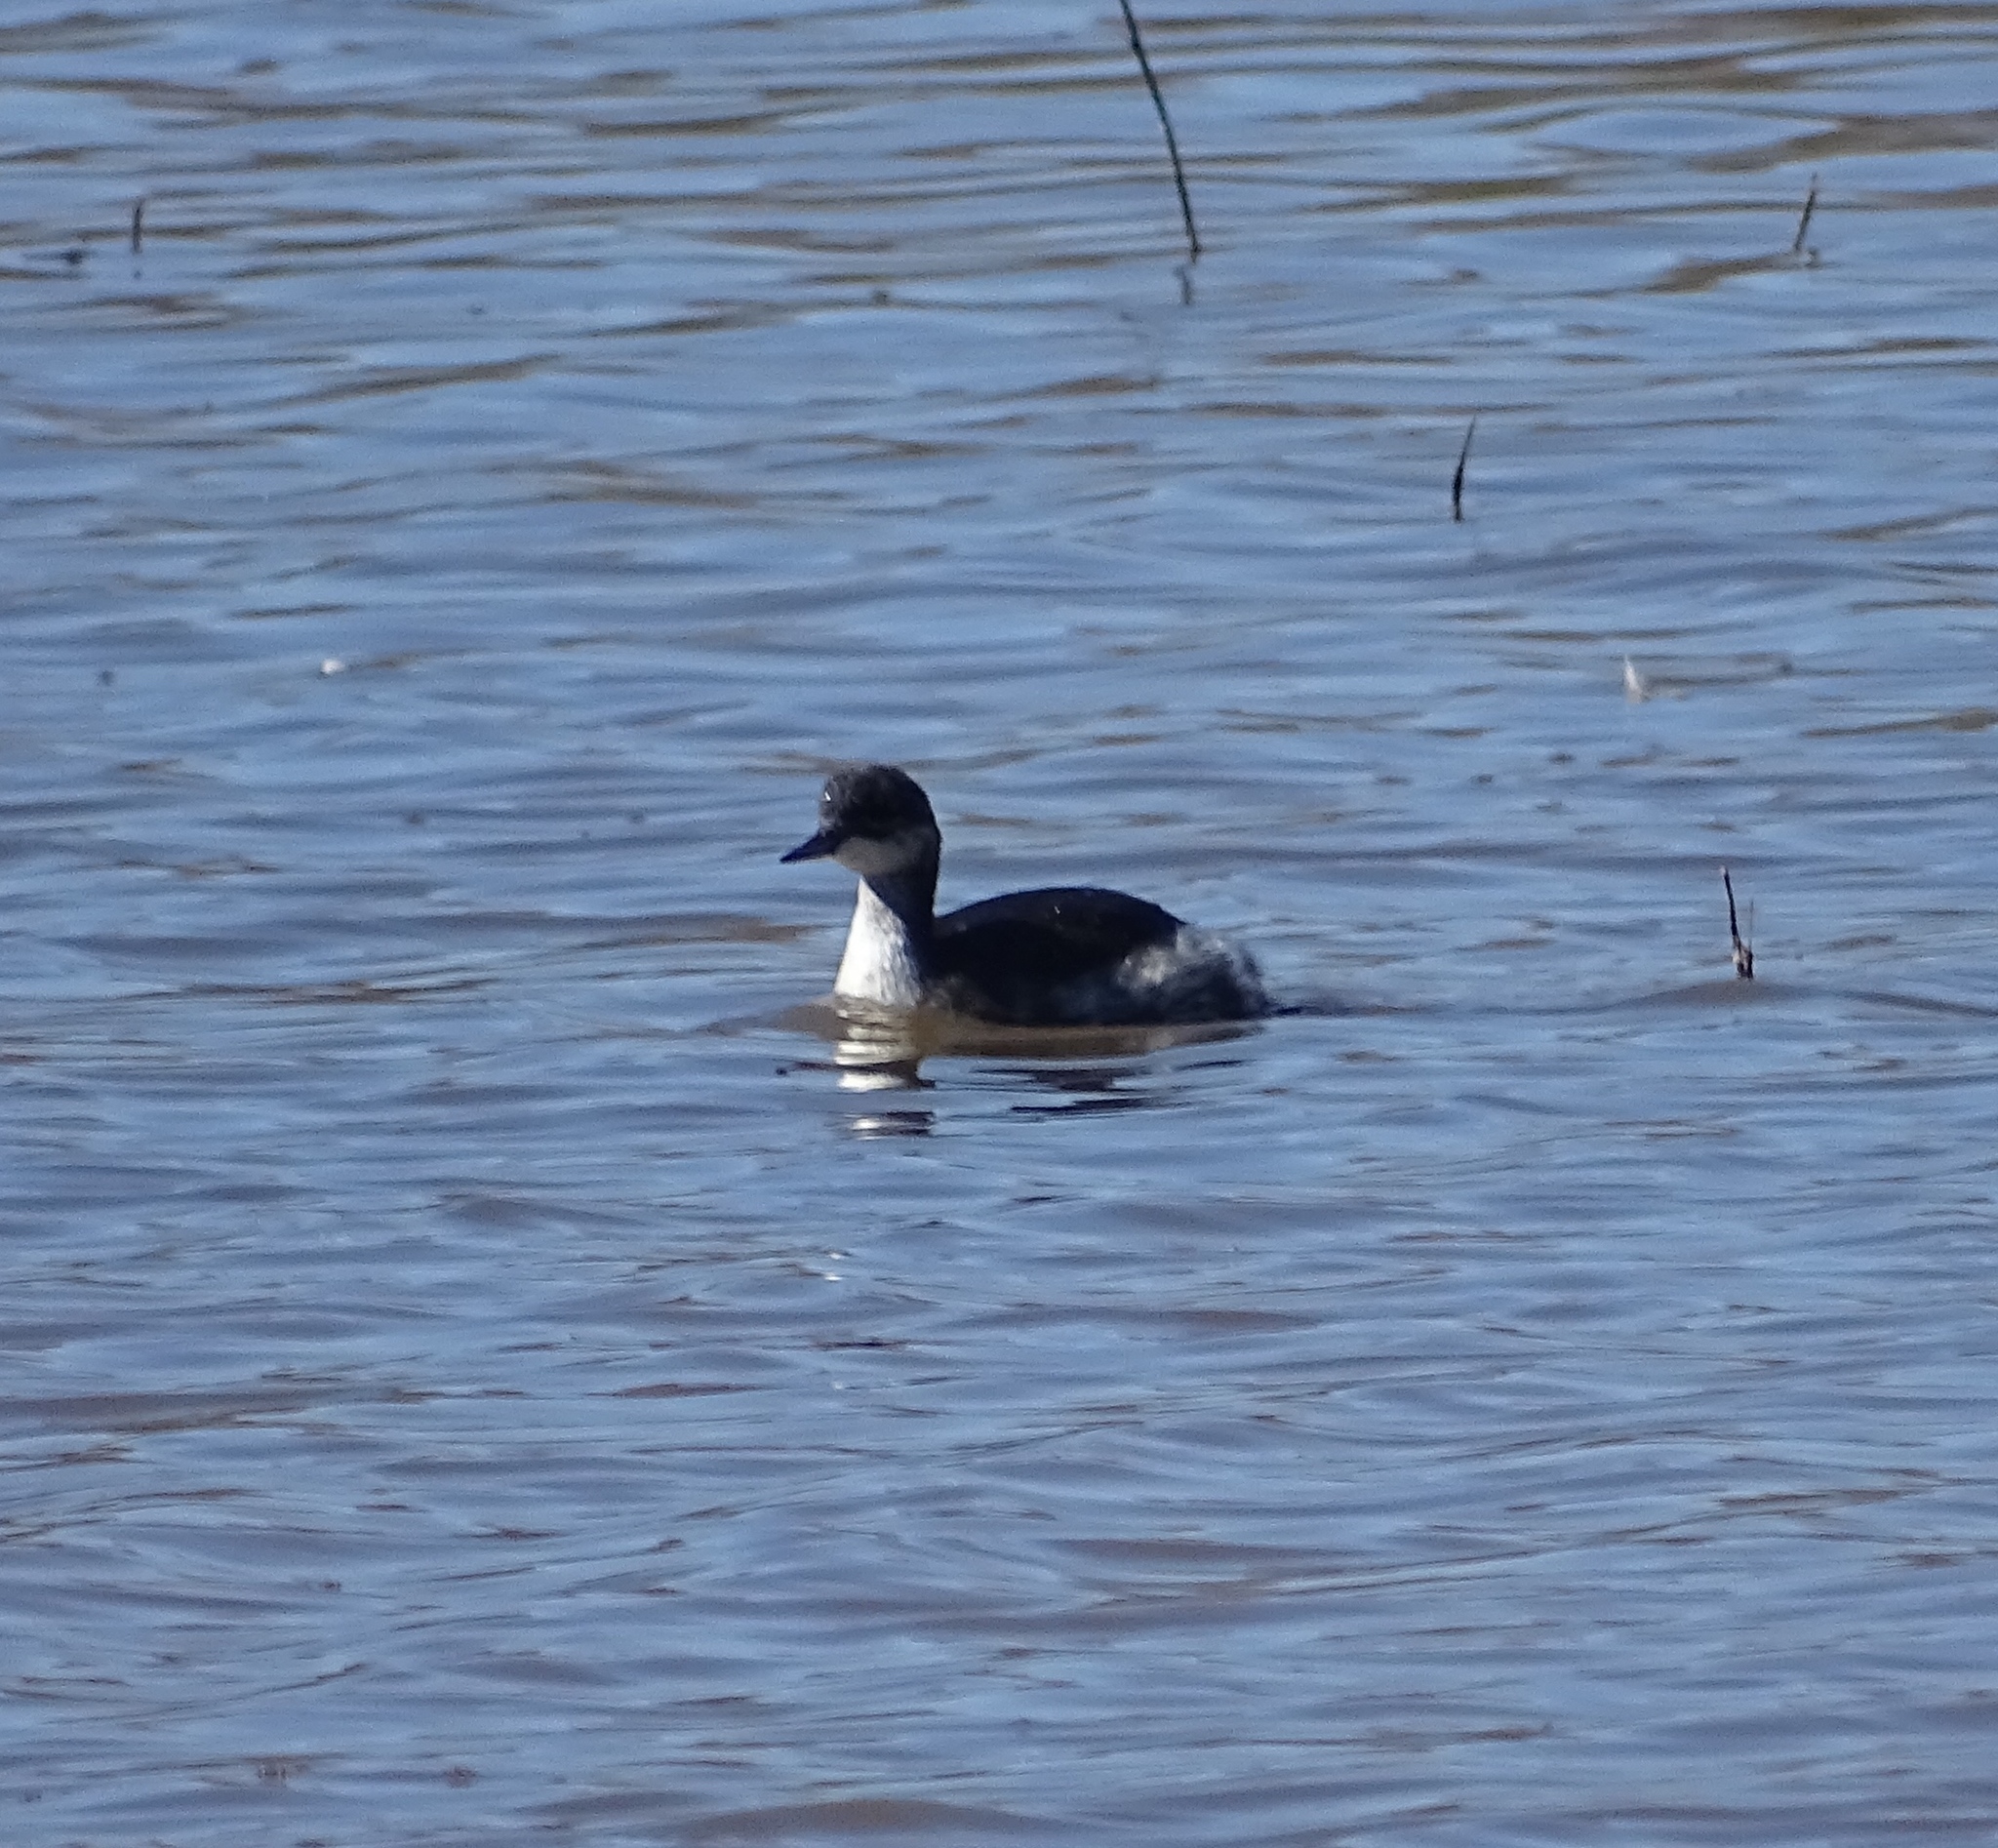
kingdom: Animalia
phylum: Chordata
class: Aves
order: Podicipediformes
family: Podicipedidae
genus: Podiceps
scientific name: Podiceps nigricollis
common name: Black-necked grebe
